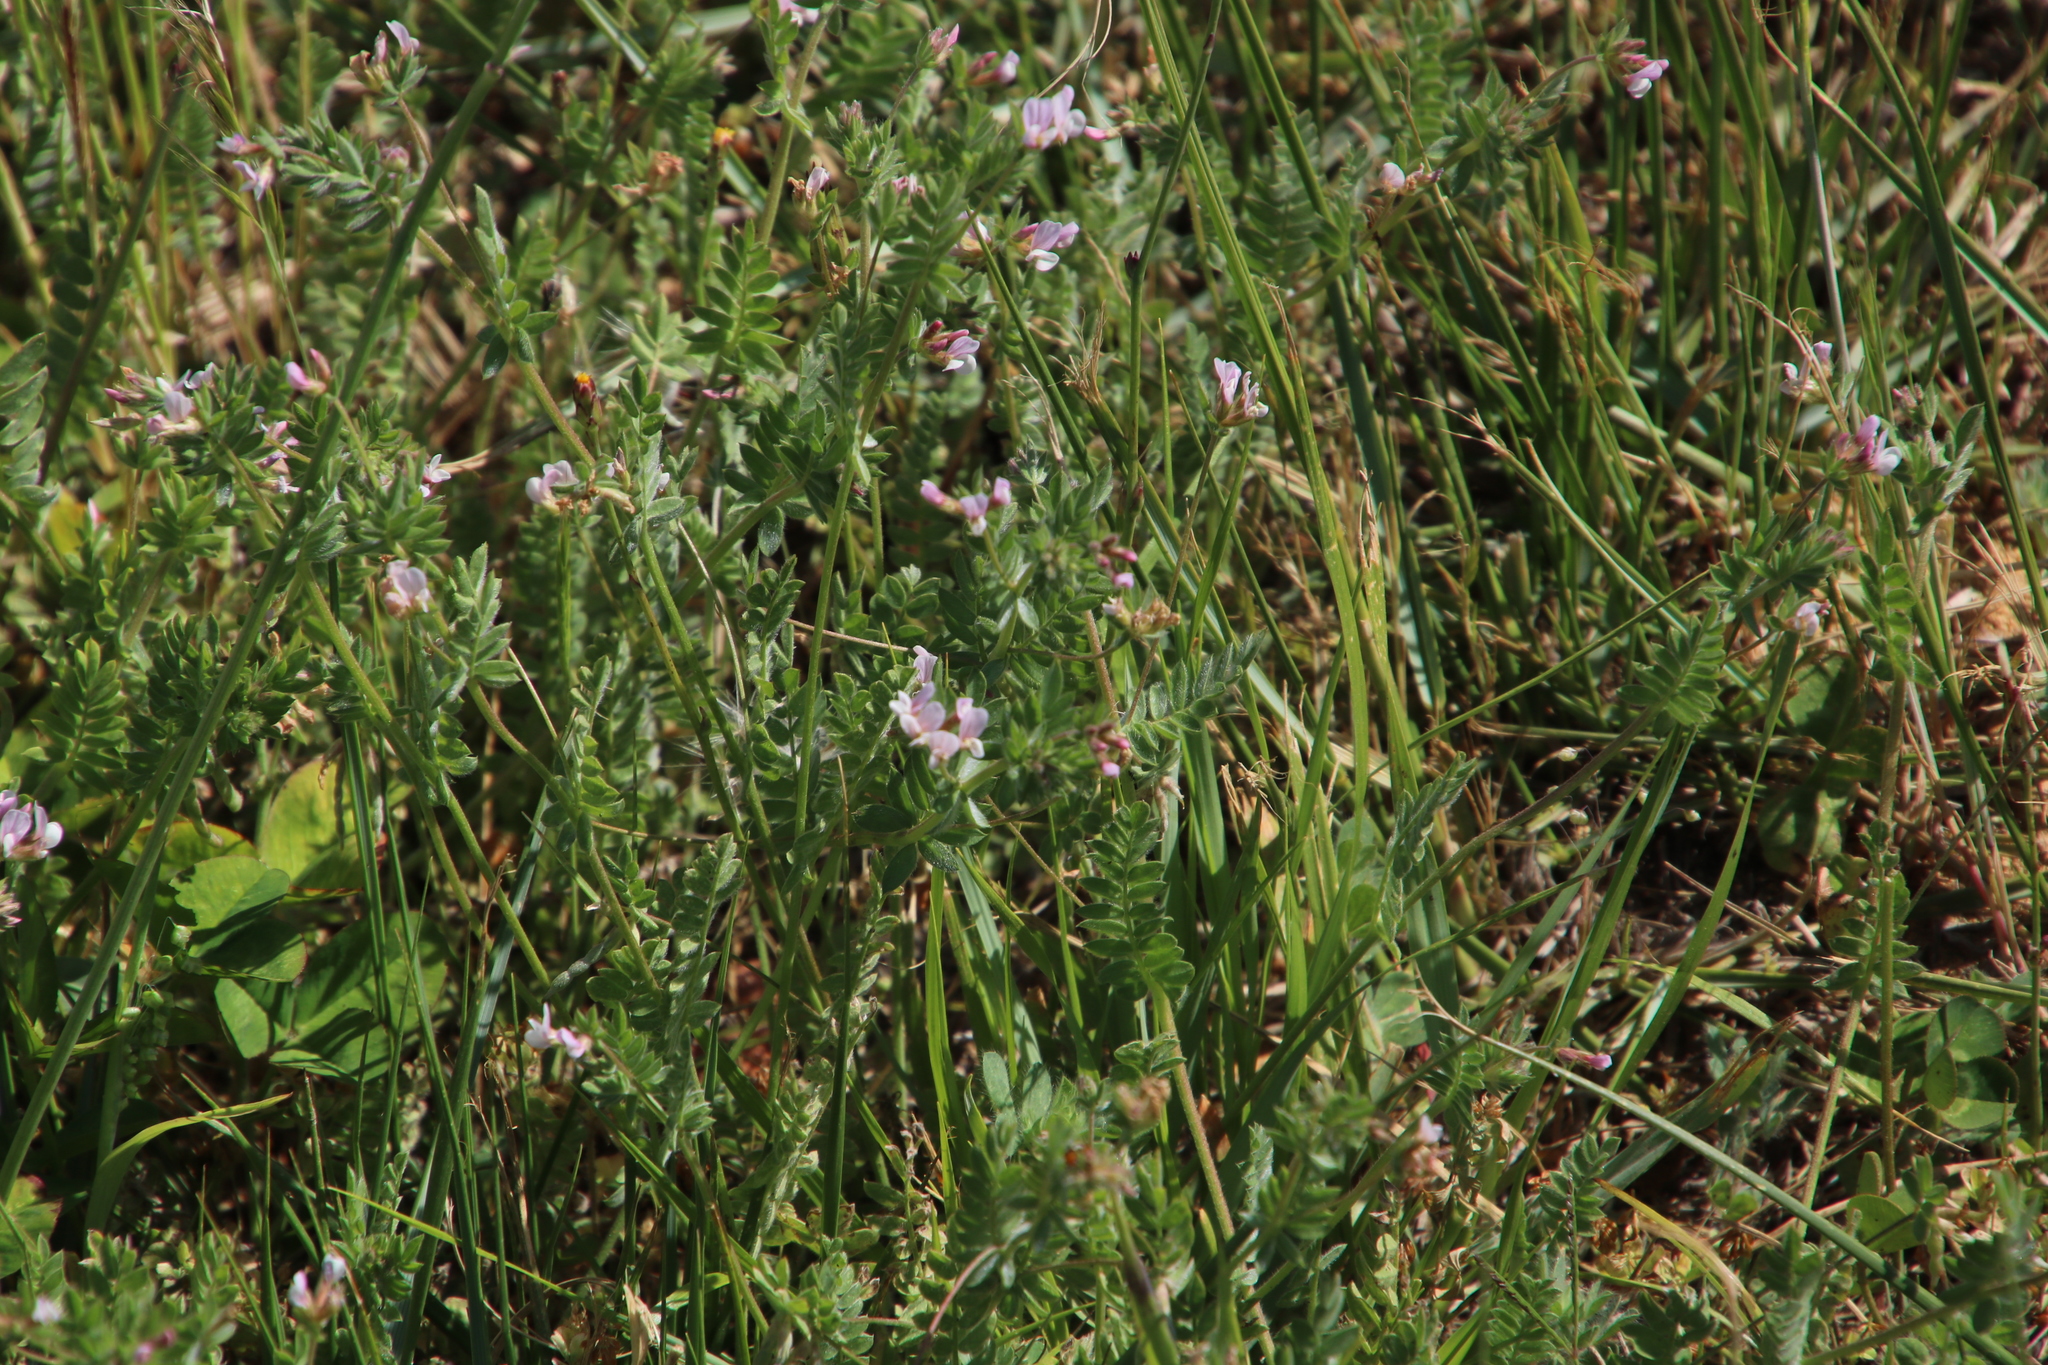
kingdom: Plantae
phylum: Tracheophyta
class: Magnoliopsida
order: Fabales
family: Fabaceae
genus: Ornithopus
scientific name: Ornithopus sativus
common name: Serradella
